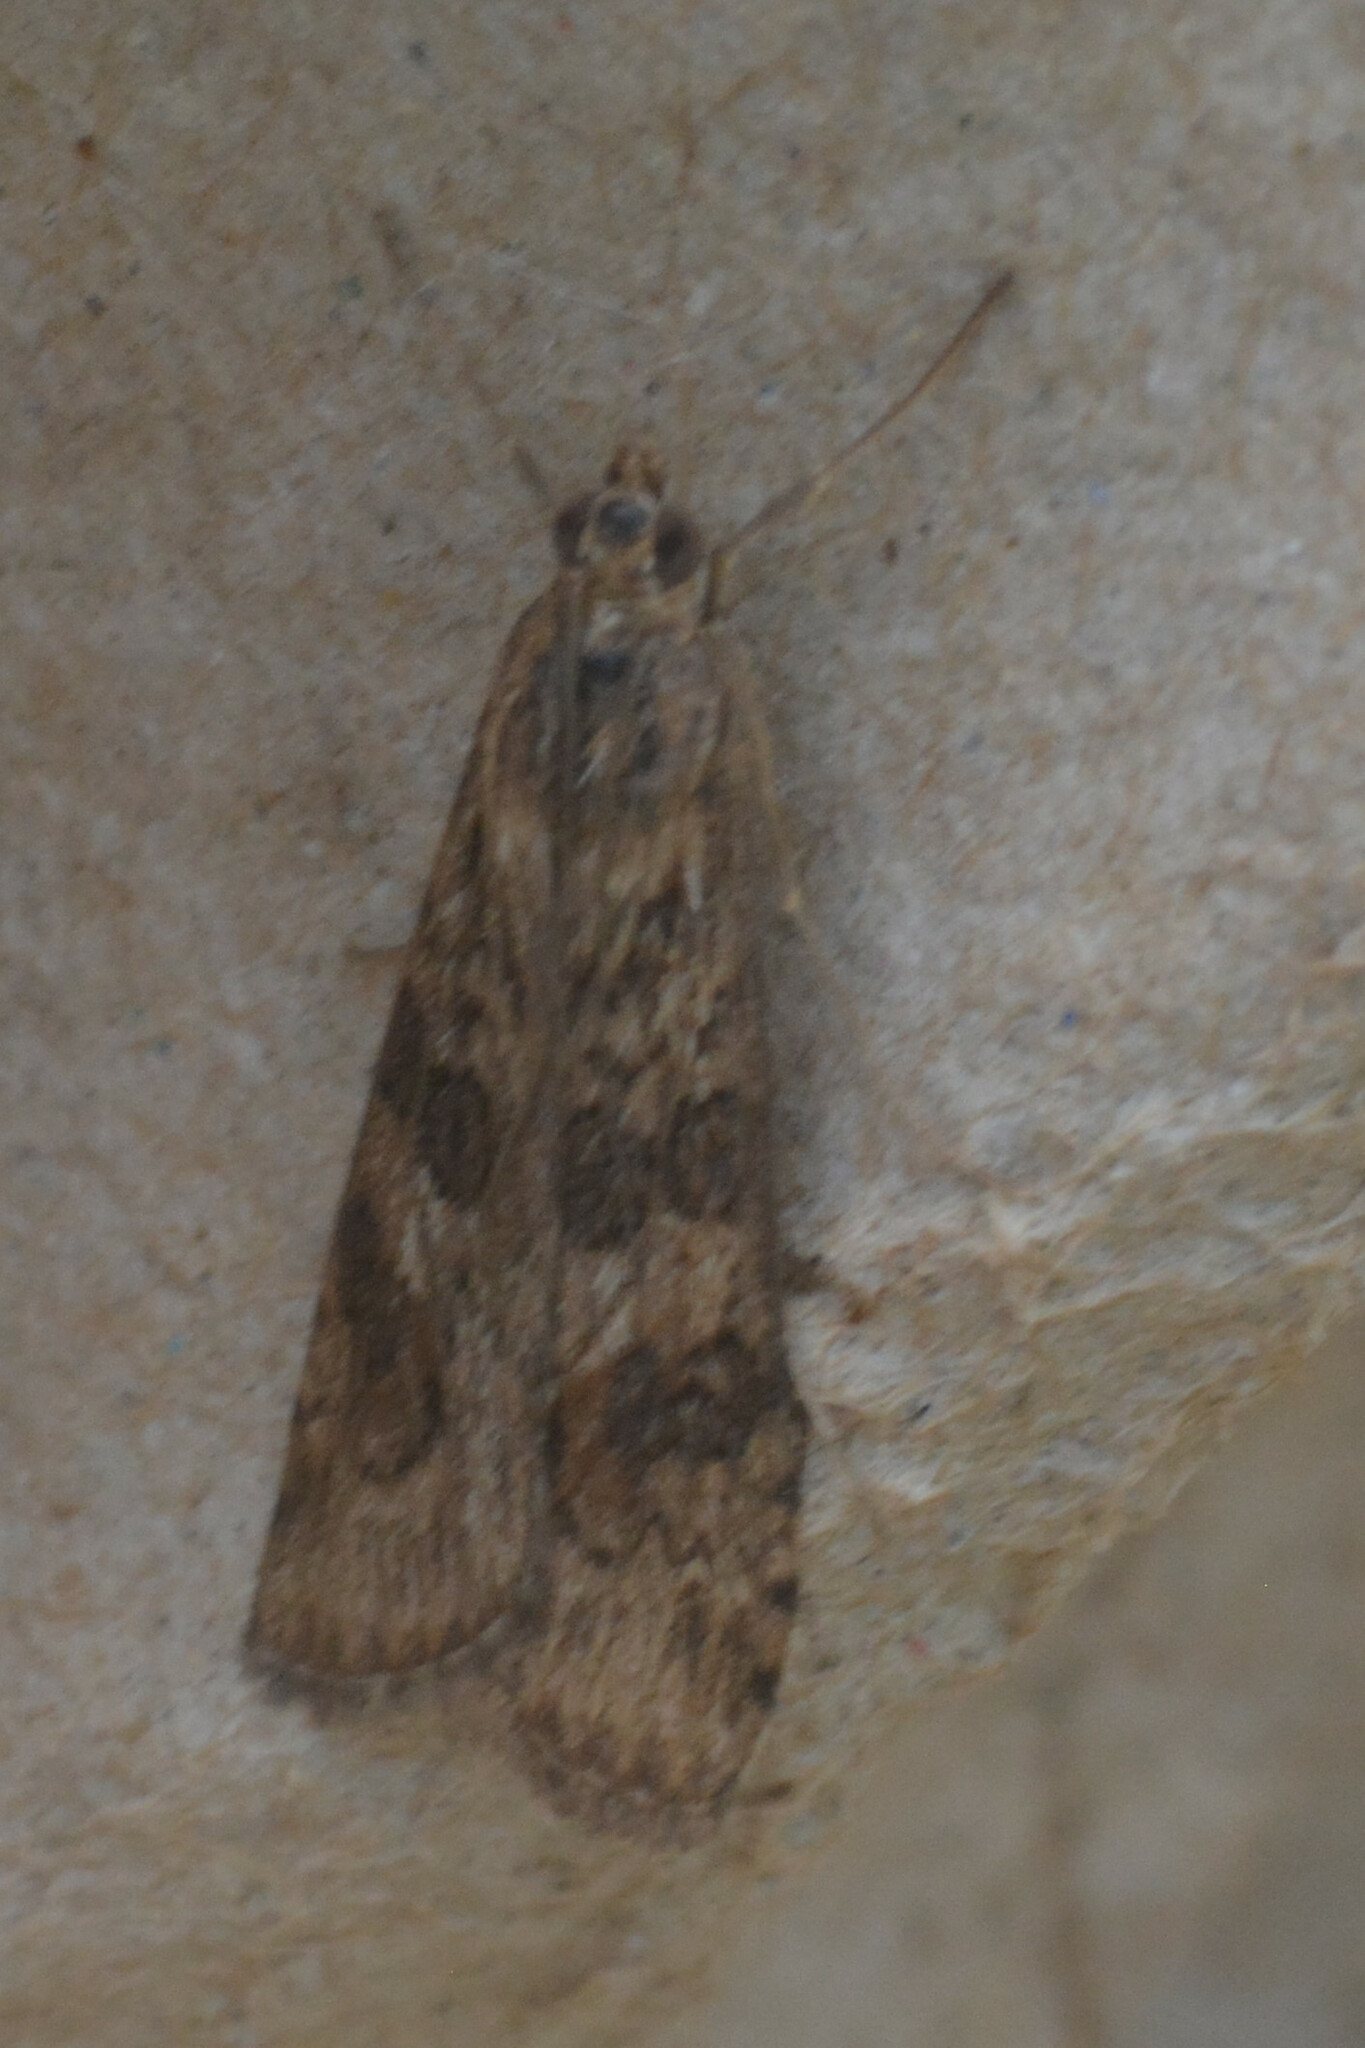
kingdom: Animalia
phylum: Arthropoda
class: Insecta
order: Lepidoptera
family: Crambidae
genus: Nomophila
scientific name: Nomophila noctuella
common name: Rush veneer
